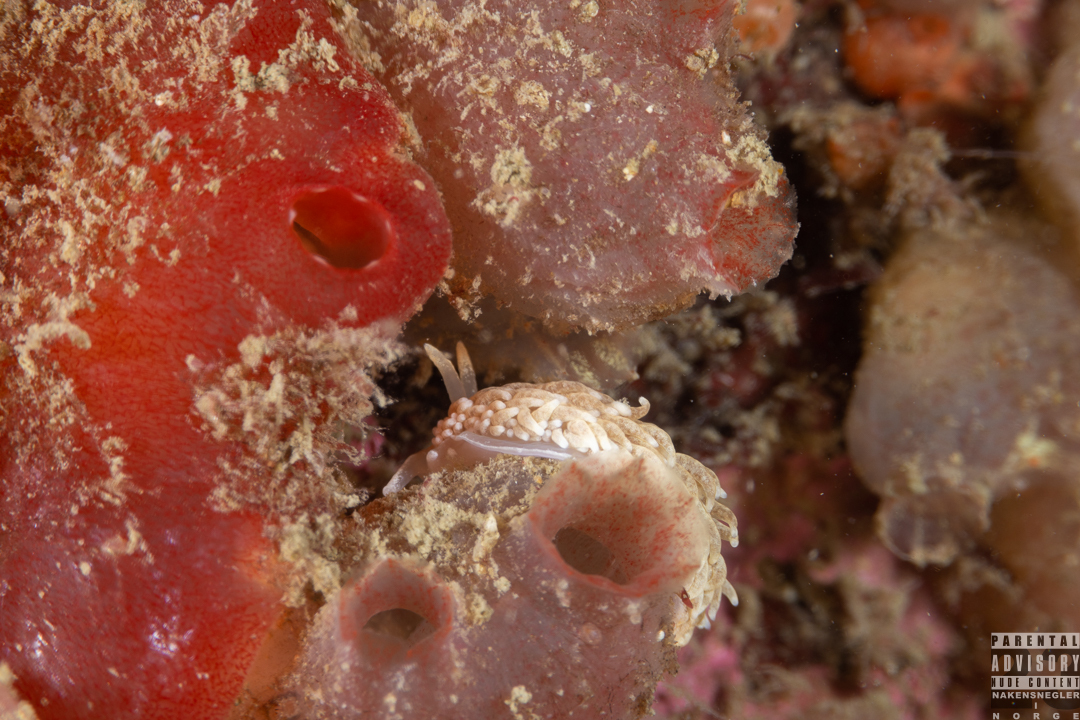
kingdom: Animalia
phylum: Mollusca
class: Gastropoda
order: Nudibranchia
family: Aeolidiidae
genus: Aeolidiella
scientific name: Aeolidiella glauca
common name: Orange-brown aeolid
